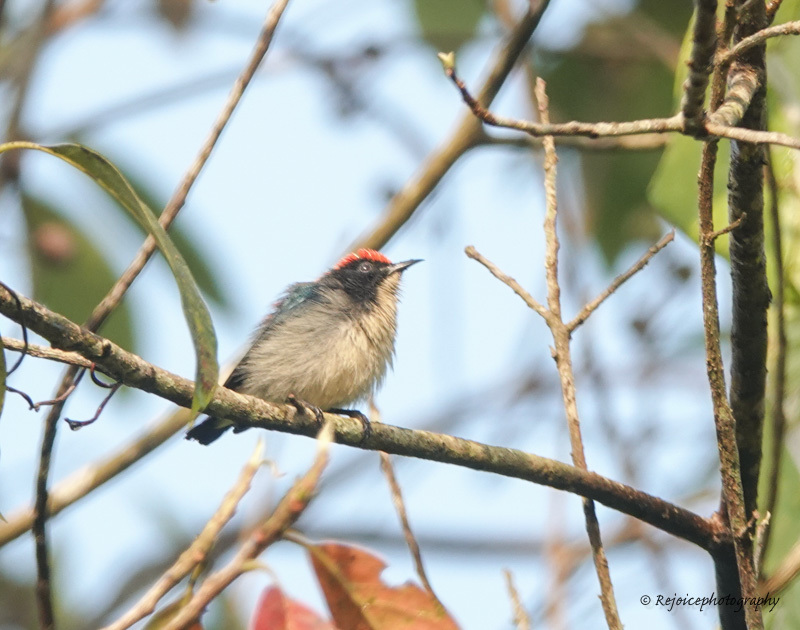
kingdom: Animalia
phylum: Chordata
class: Aves
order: Passeriformes
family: Dicaeidae
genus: Dicaeum
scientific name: Dicaeum cruentatum
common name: Scarlet-backed flowerpecker
